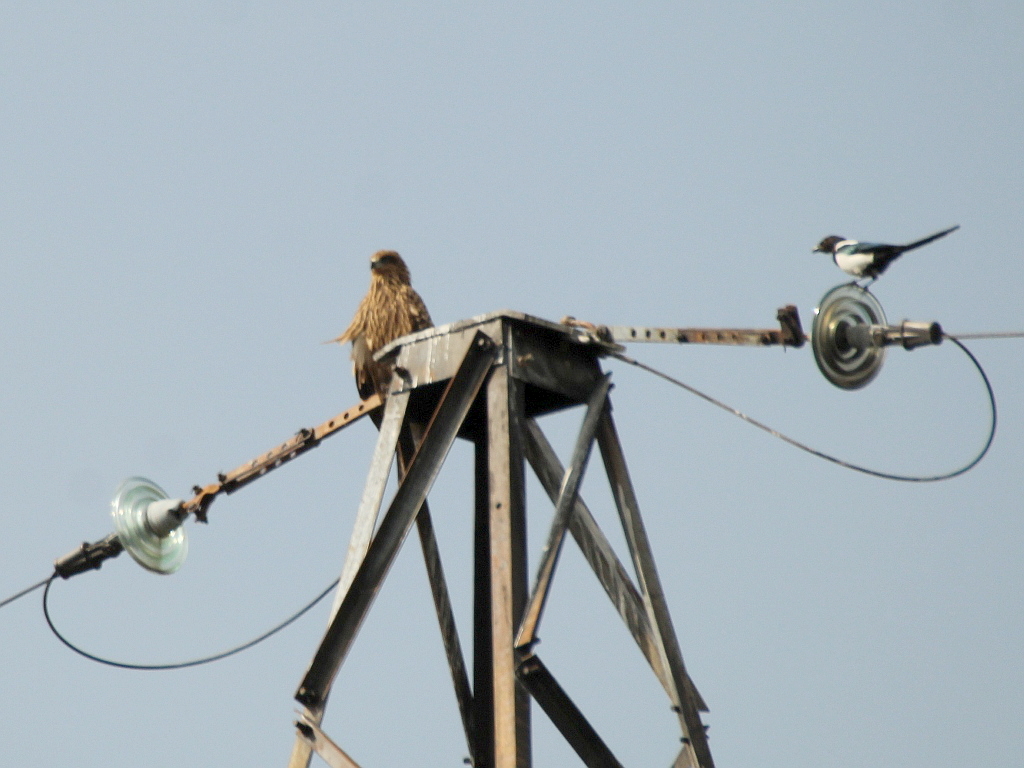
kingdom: Animalia
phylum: Chordata
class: Aves
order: Accipitriformes
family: Accipitridae
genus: Milvus
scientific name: Milvus migrans
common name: Black kite
